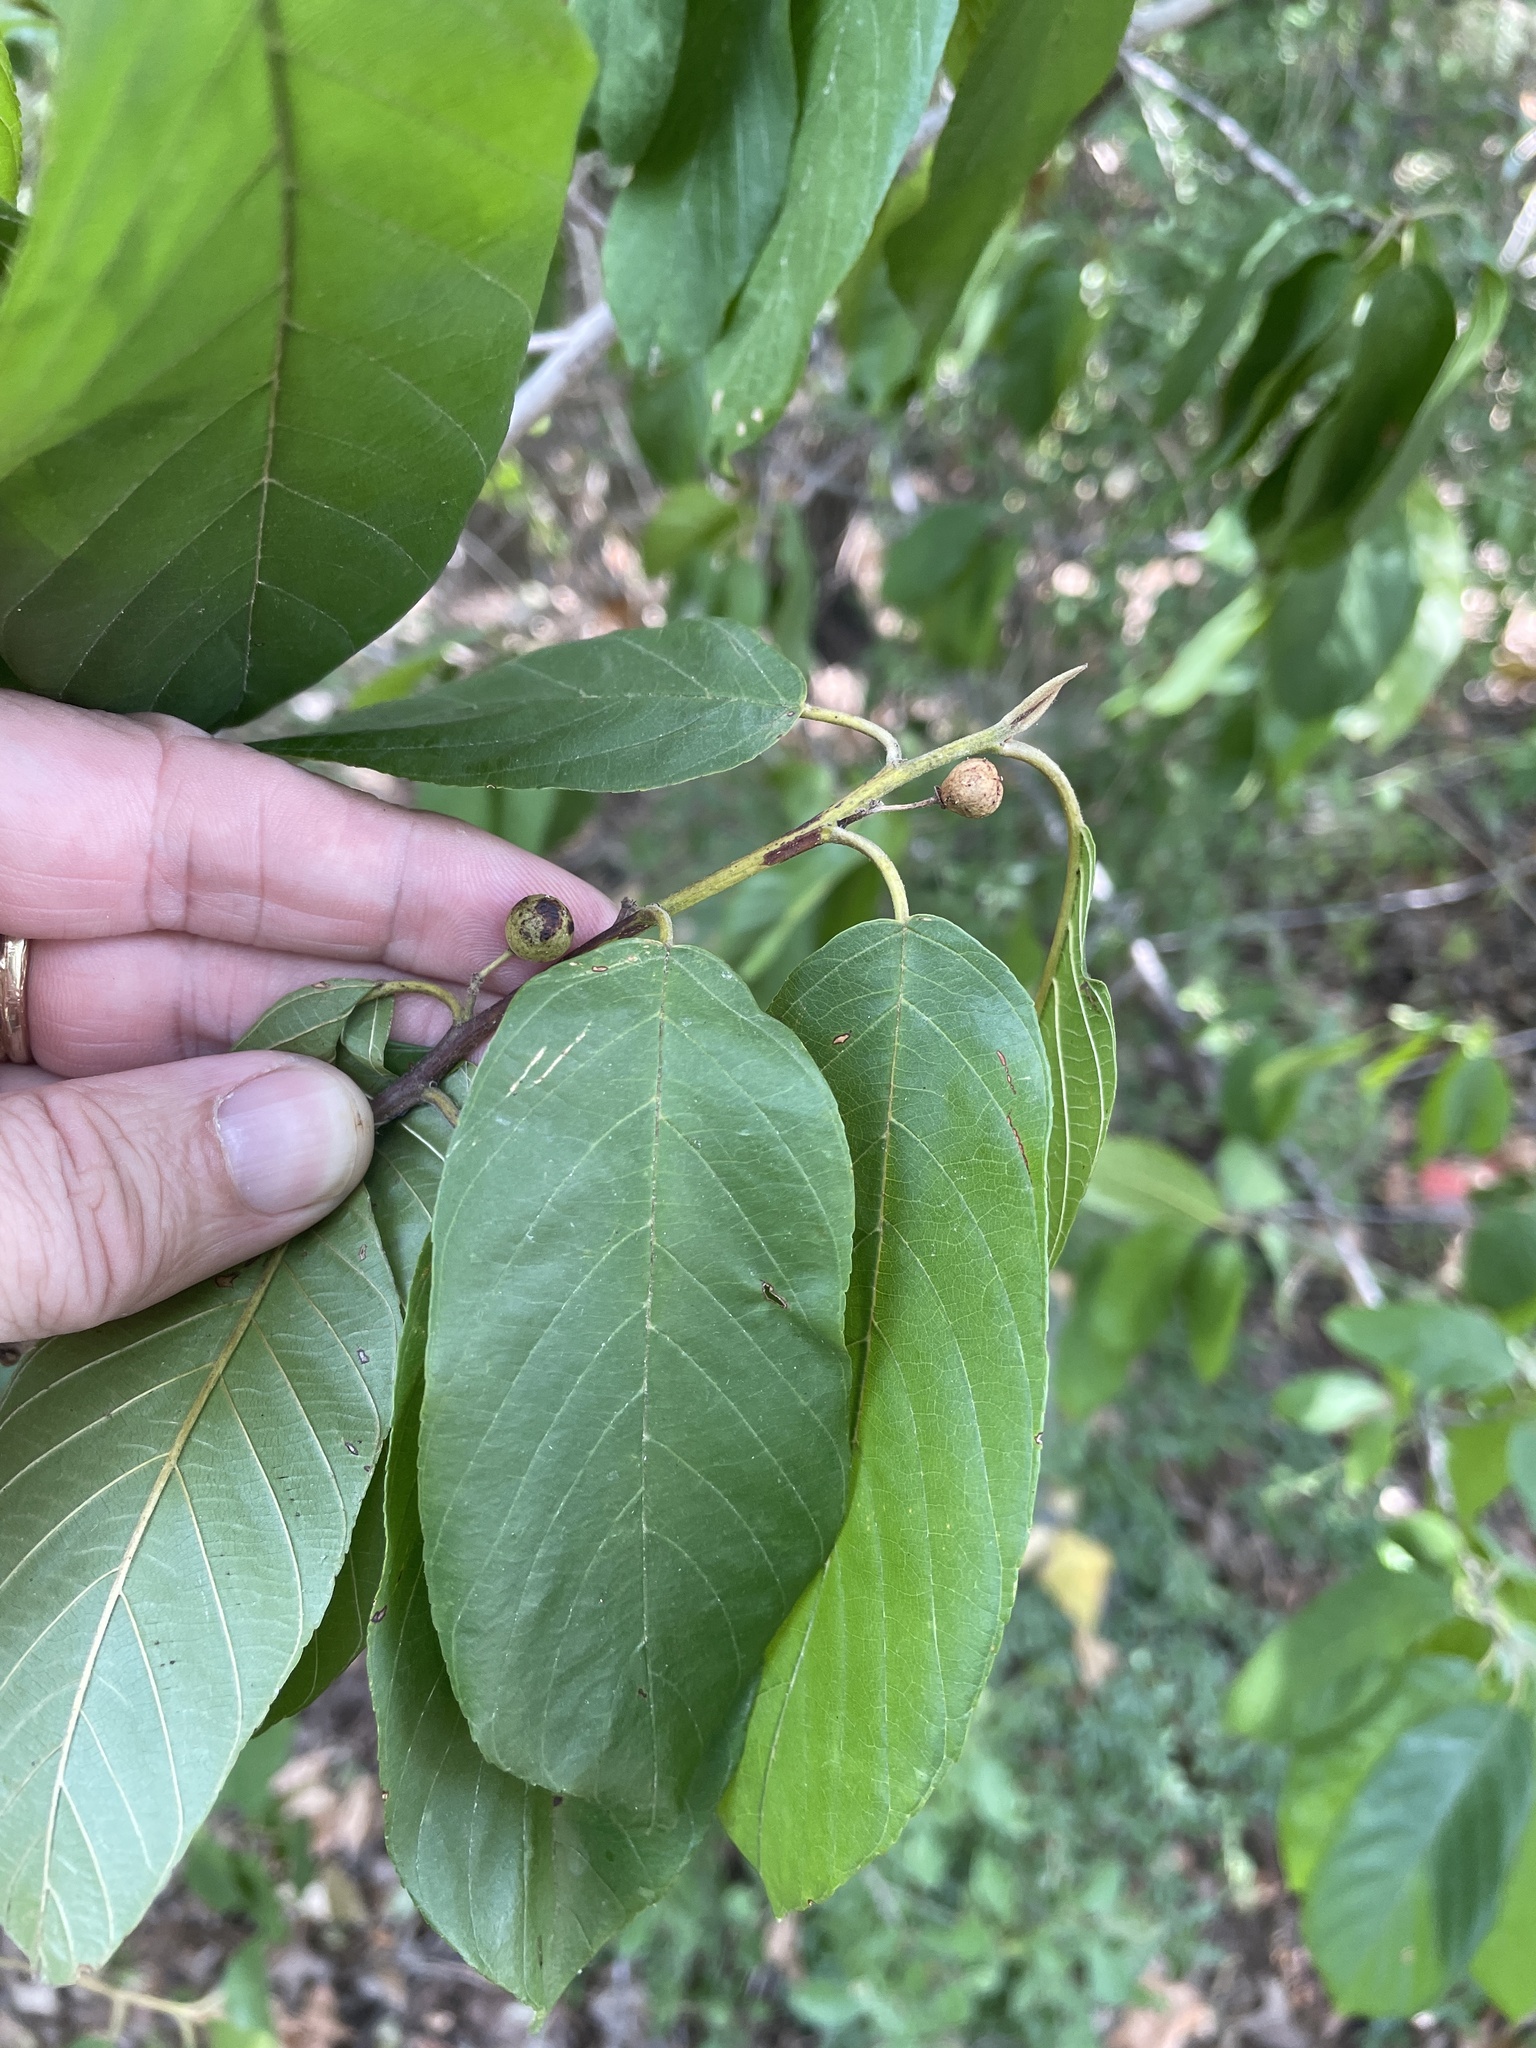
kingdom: Plantae
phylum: Tracheophyta
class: Magnoliopsida
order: Rosales
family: Rhamnaceae
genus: Frangula
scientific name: Frangula caroliniana
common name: Carolina buckthorn
